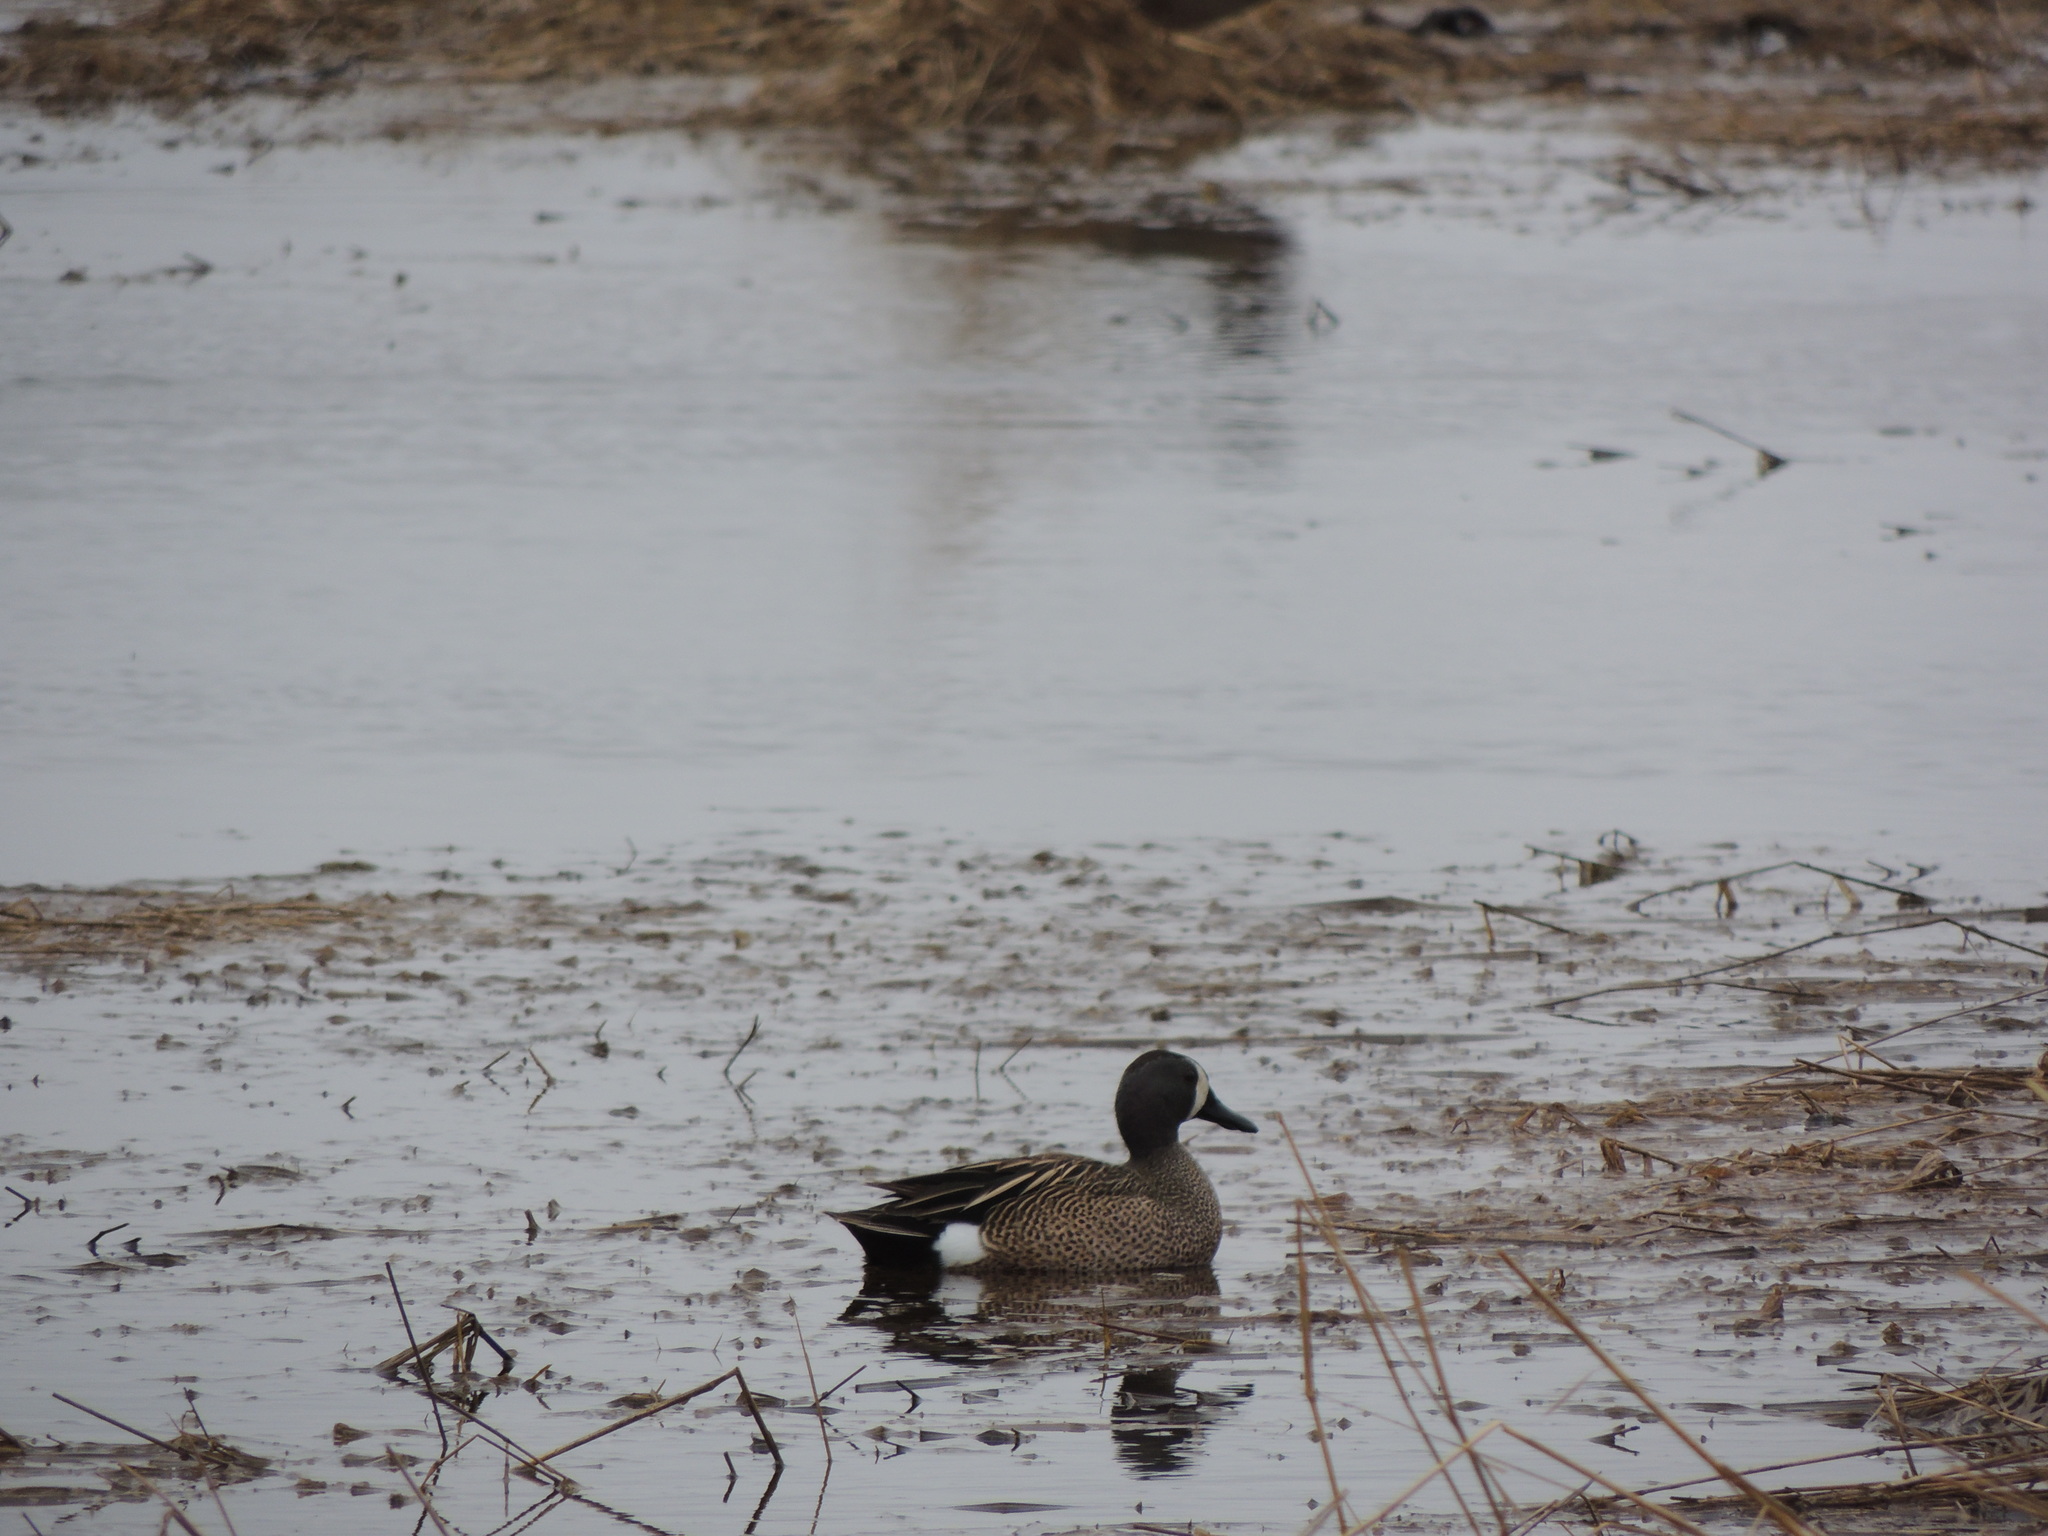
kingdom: Animalia
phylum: Chordata
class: Aves
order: Anseriformes
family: Anatidae
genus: Spatula
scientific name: Spatula discors
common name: Blue-winged teal
